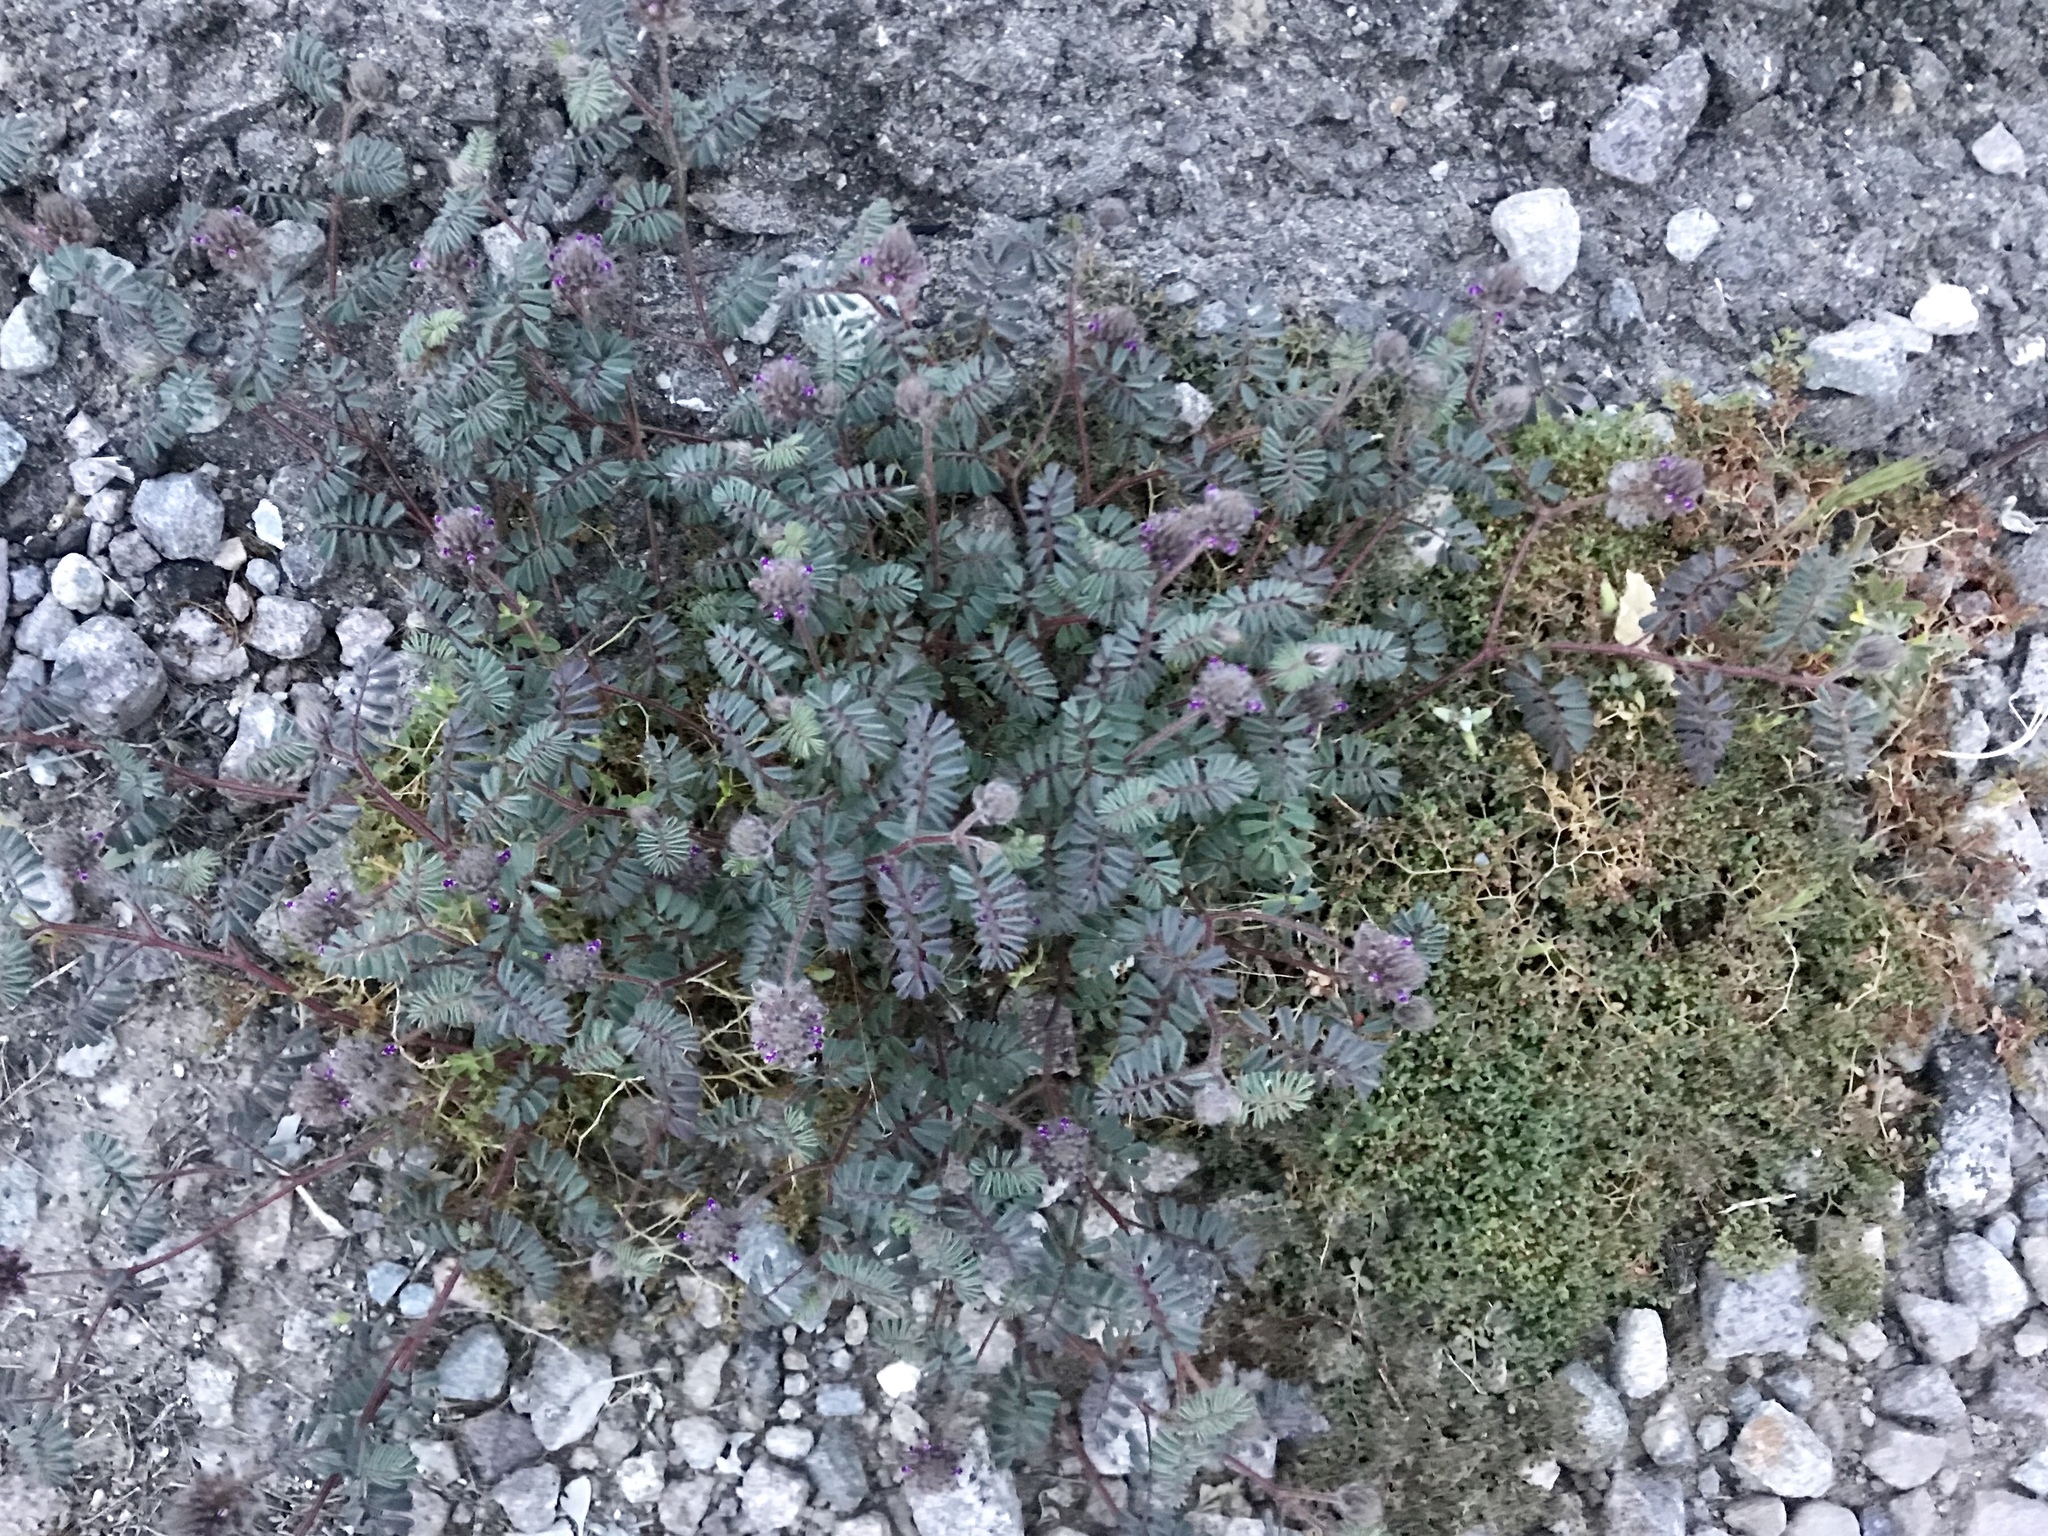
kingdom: Plantae
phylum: Tracheophyta
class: Magnoliopsida
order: Fabales
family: Fabaceae
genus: Dalea
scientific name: Dalea mollis
